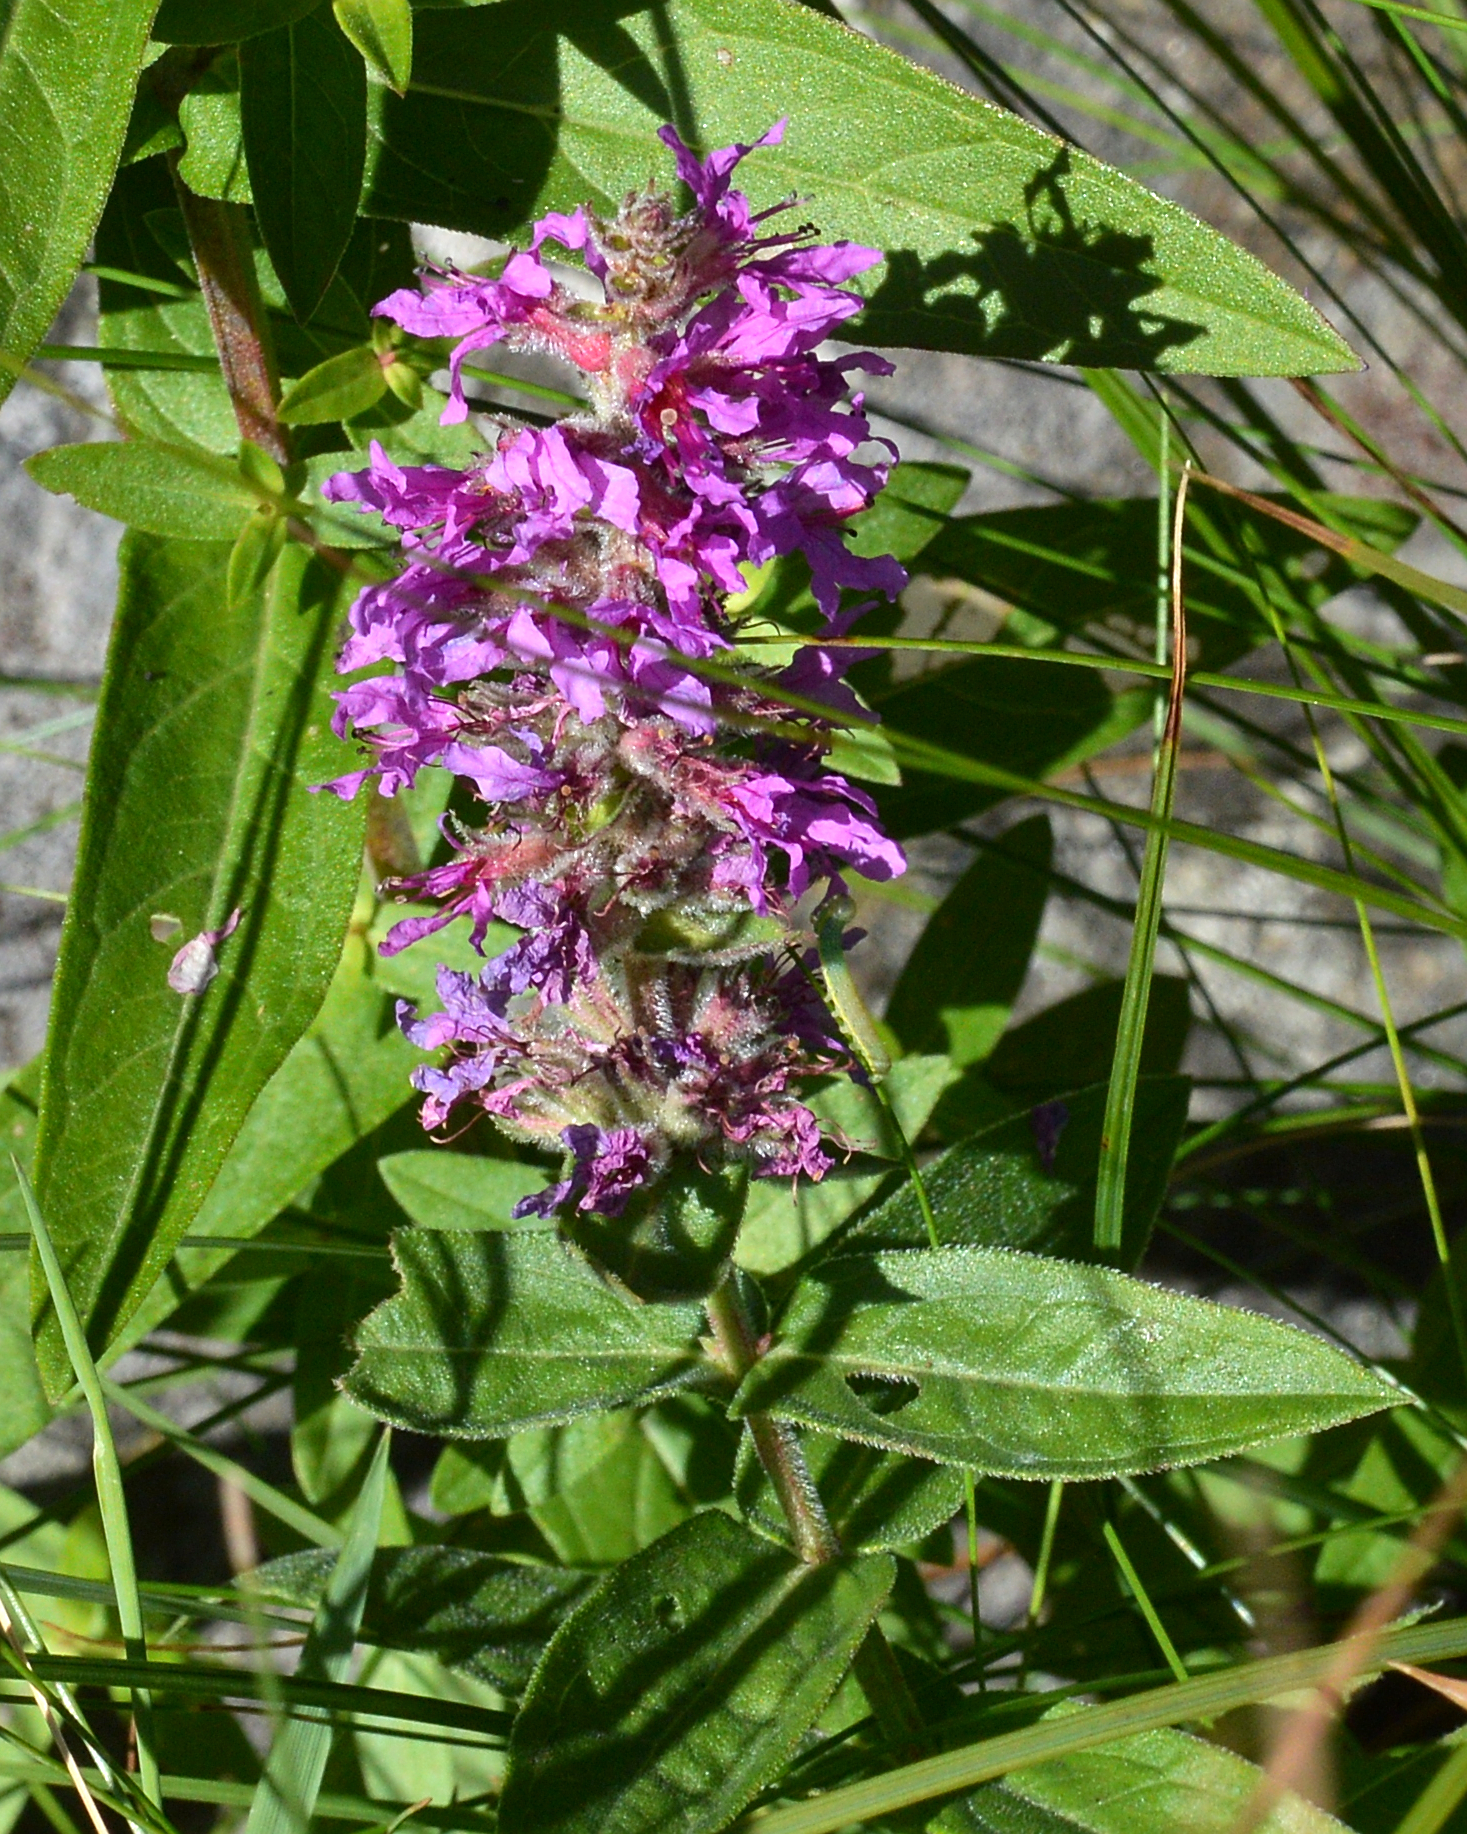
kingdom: Plantae
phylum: Tracheophyta
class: Magnoliopsida
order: Myrtales
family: Lythraceae
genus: Lythrum
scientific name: Lythrum salicaria
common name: Purple loosestrife
